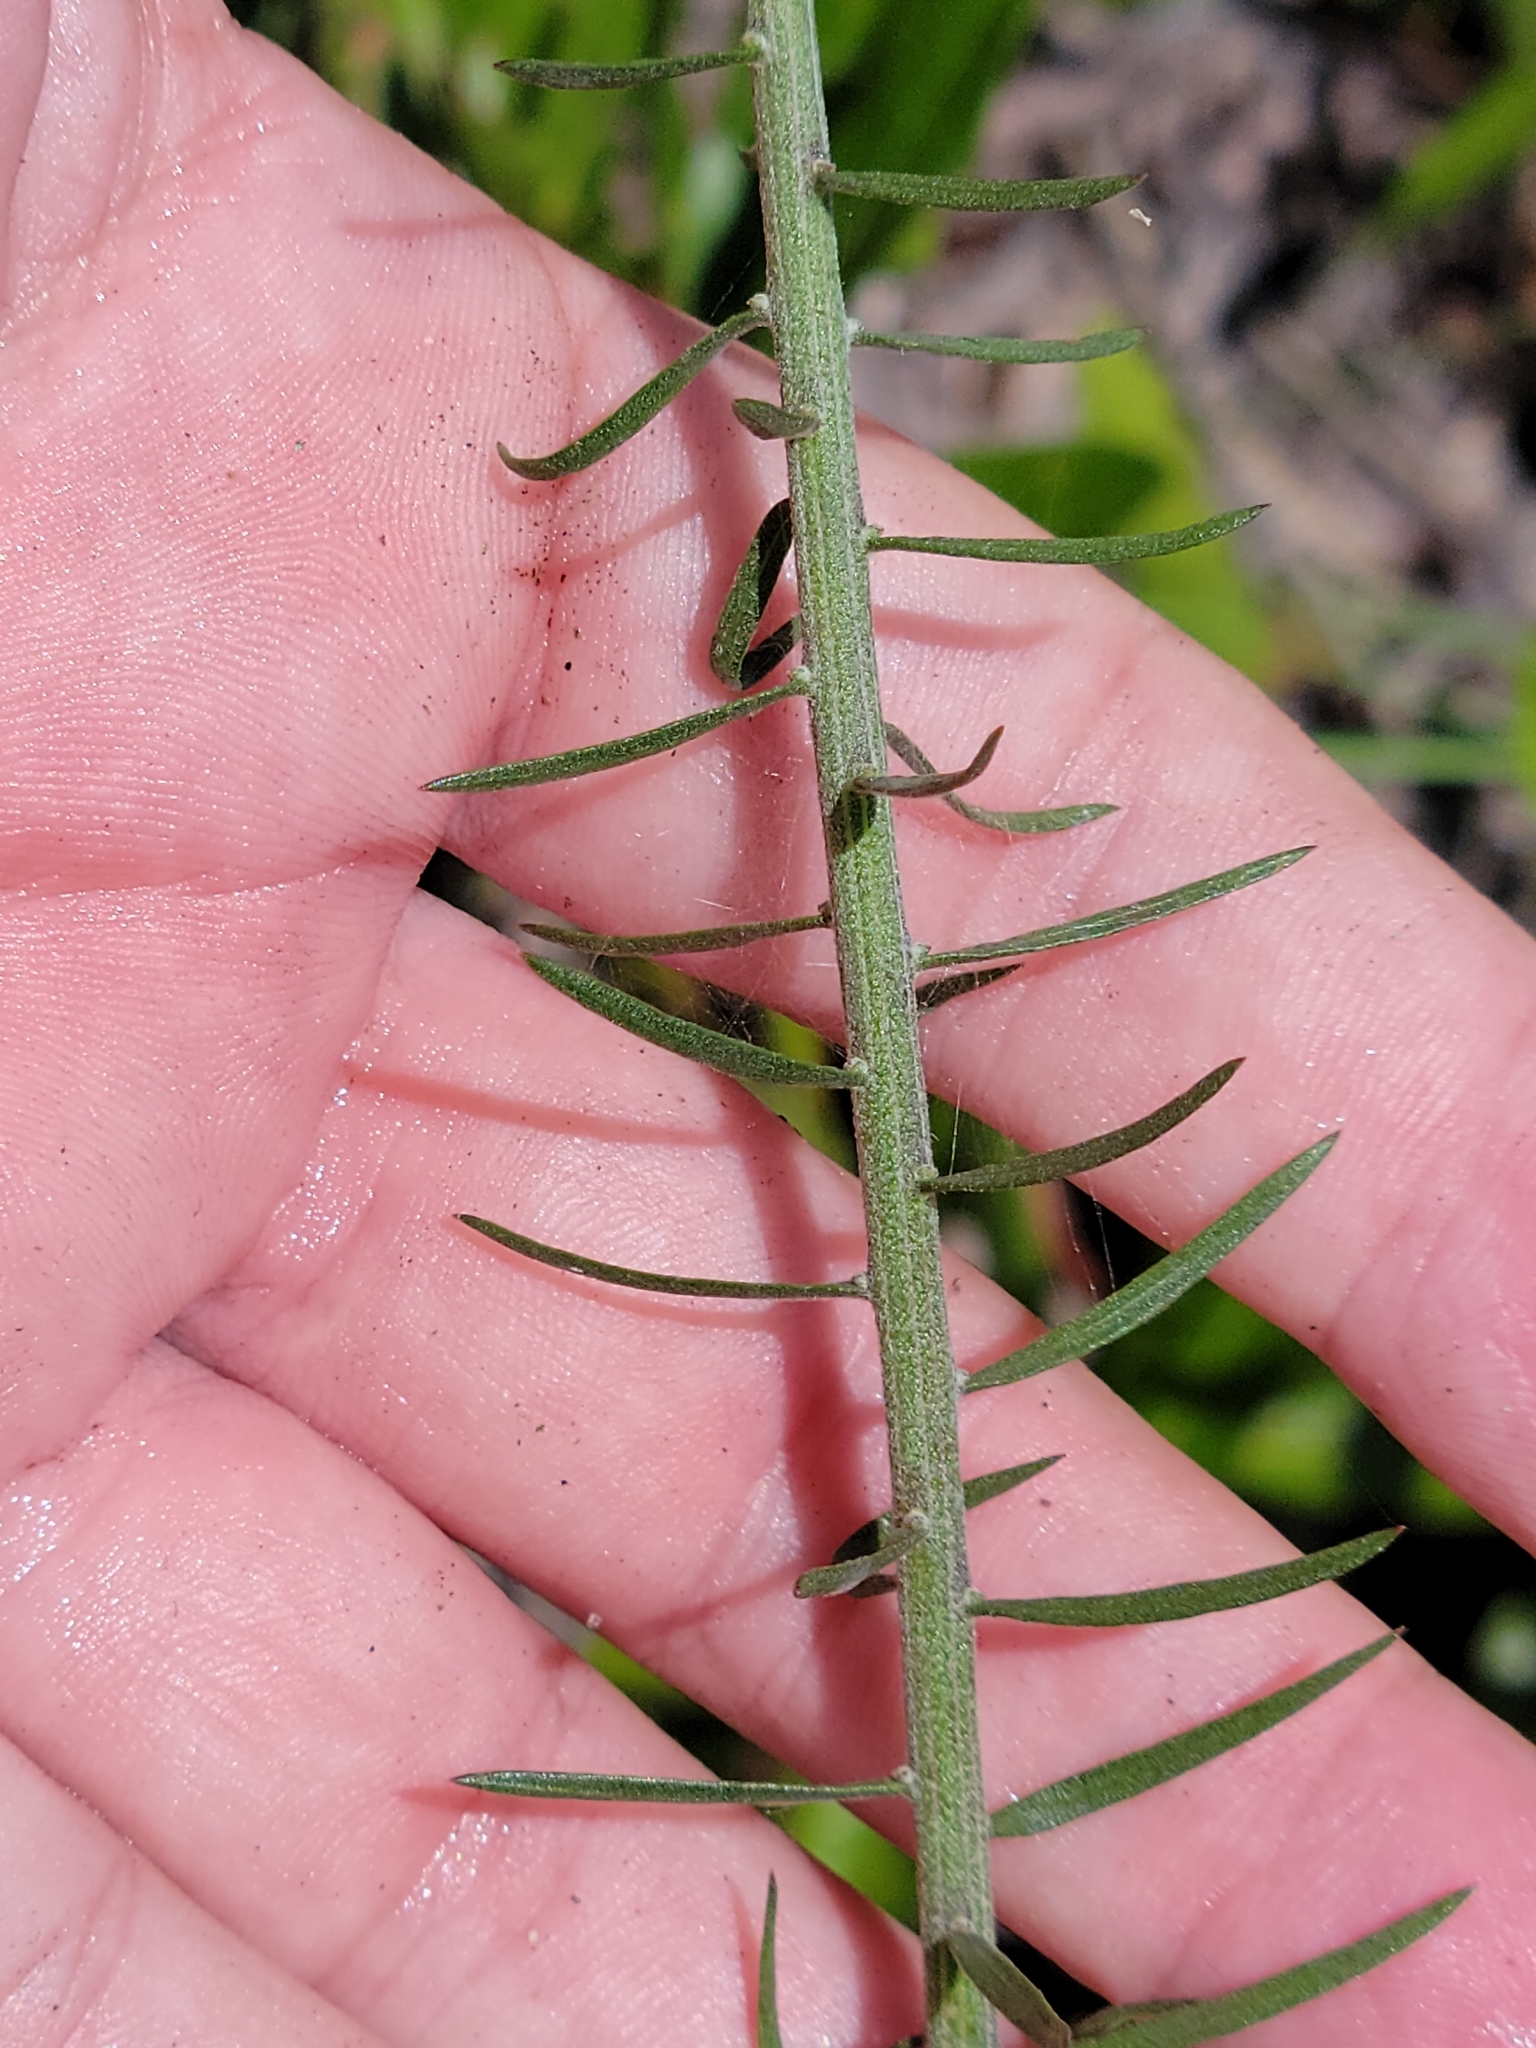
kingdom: Plantae
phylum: Tracheophyta
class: Magnoliopsida
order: Asterales
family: Asteraceae
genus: Liatris
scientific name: Liatris ohlingerae
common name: Scrub blazingstar
